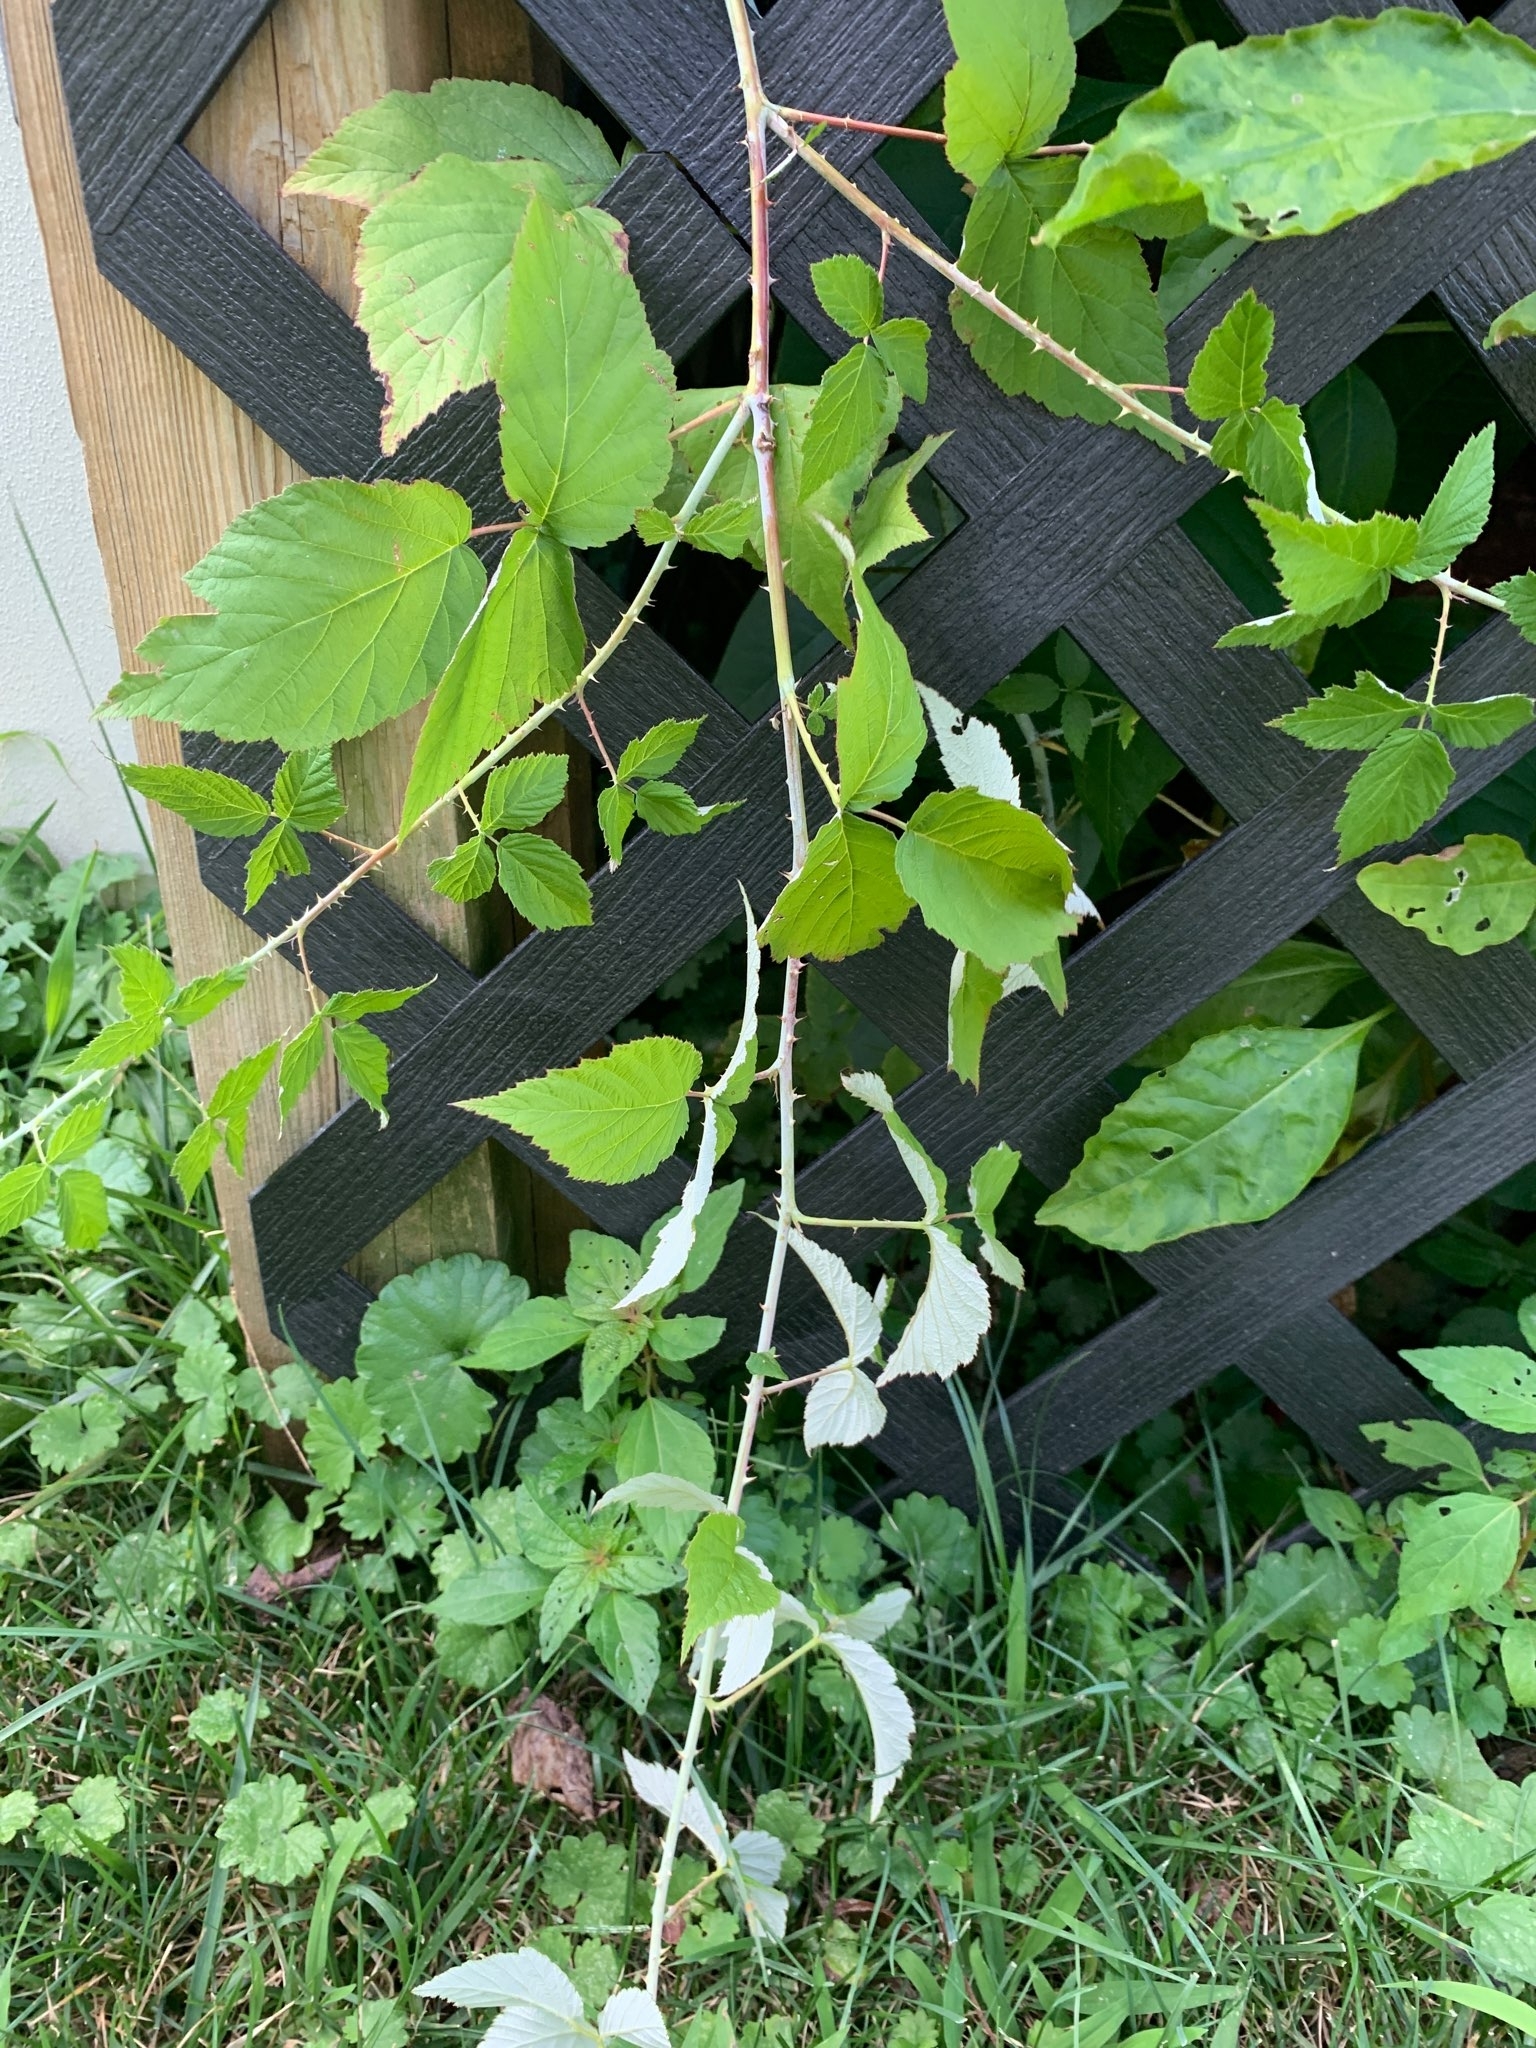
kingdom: Plantae
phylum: Tracheophyta
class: Magnoliopsida
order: Rosales
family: Rosaceae
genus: Rubus
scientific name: Rubus occidentalis
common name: Black raspberry
